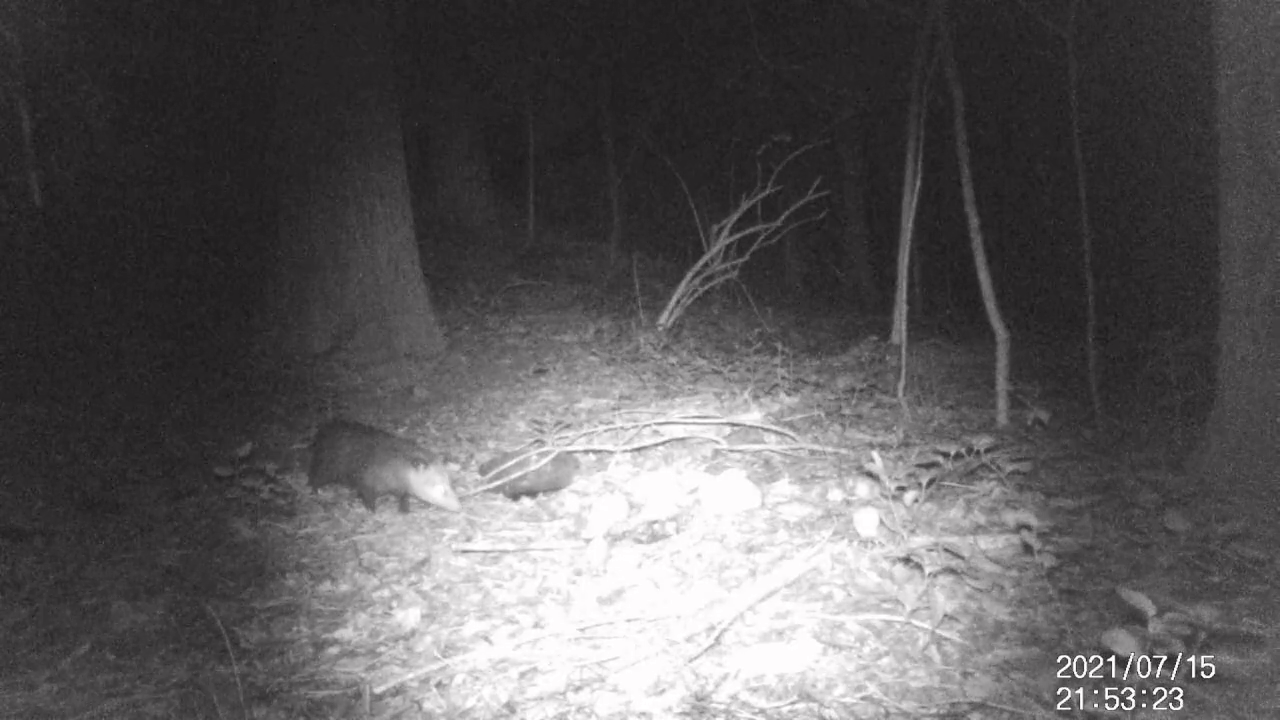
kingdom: Animalia
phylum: Chordata
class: Mammalia
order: Didelphimorphia
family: Didelphidae
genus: Didelphis
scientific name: Didelphis virginiana
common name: Virginia opossum
